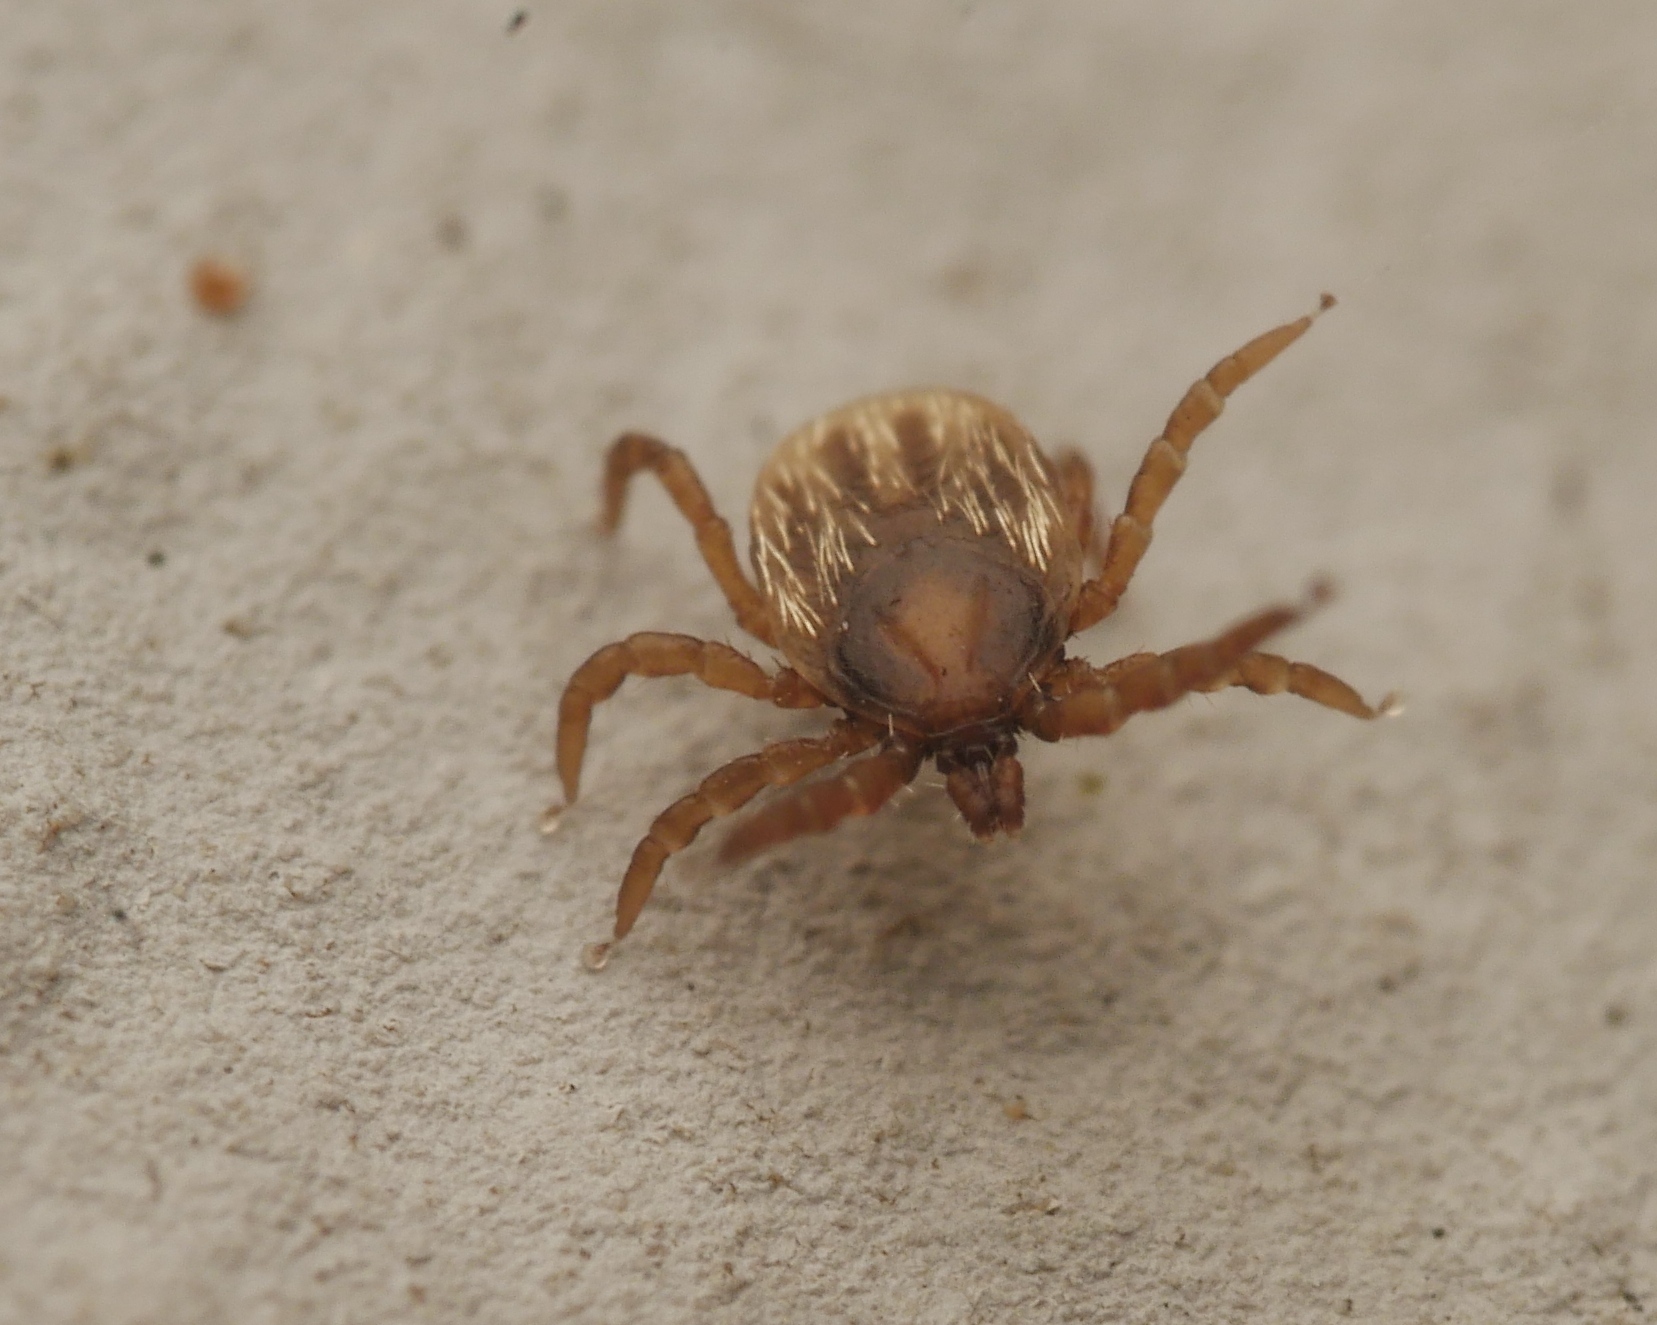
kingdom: Animalia
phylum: Arthropoda
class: Arachnida
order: Ixodida
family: Ixodidae
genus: Ixodes
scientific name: Ixodes frontalis
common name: Passerine tick
